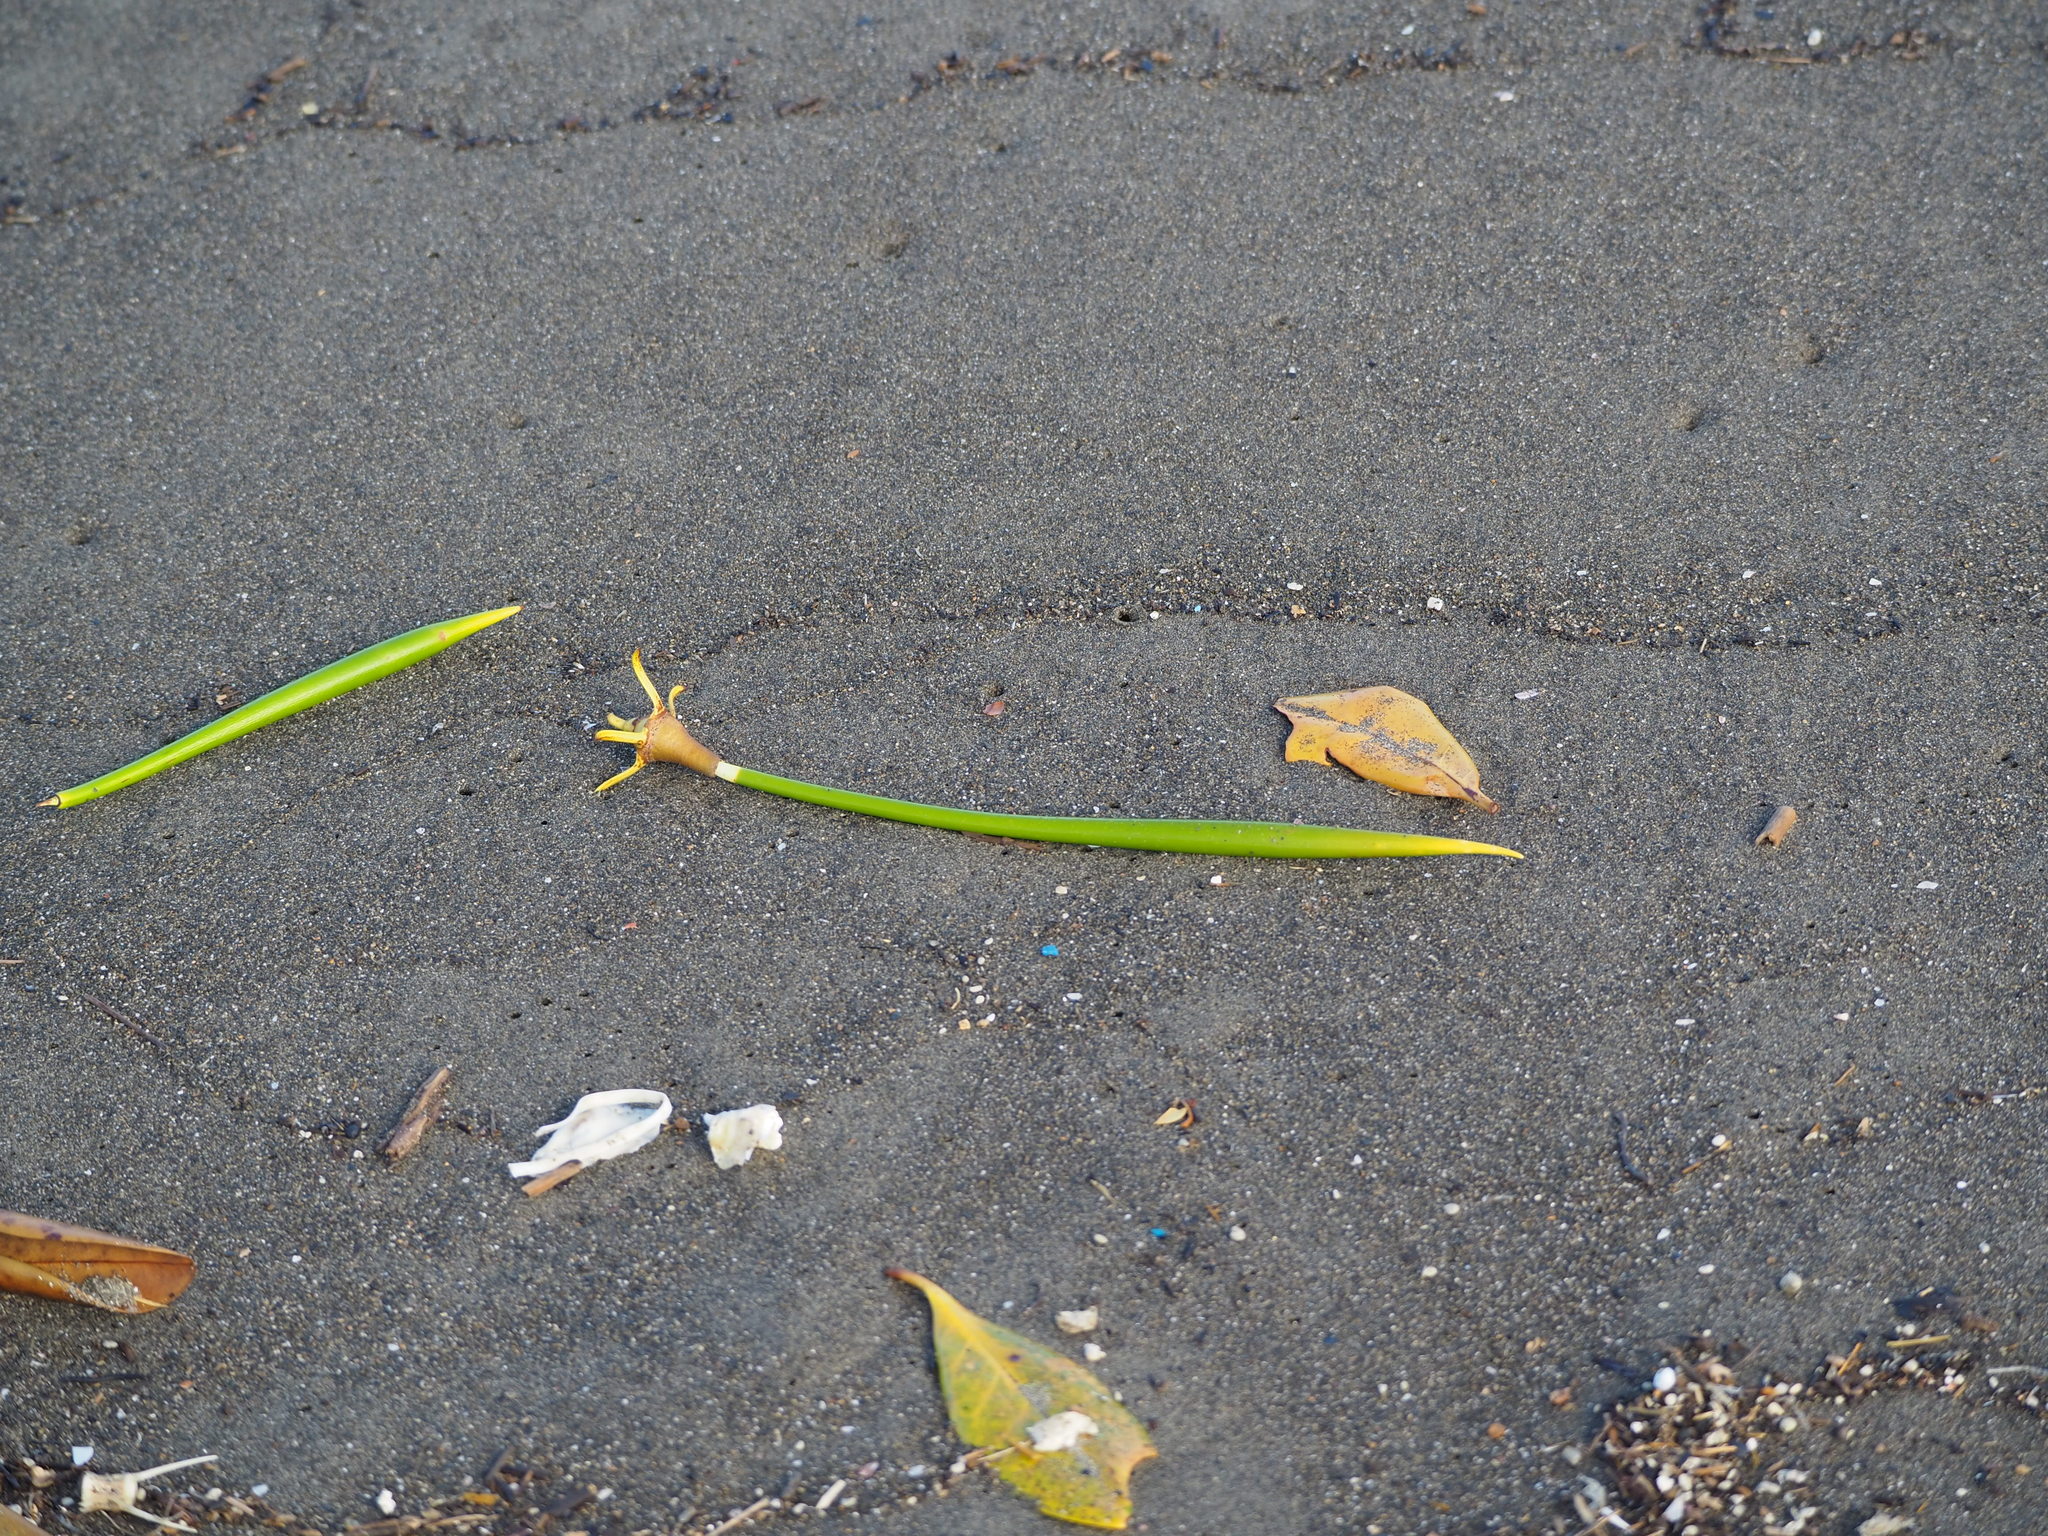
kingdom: Plantae
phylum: Tracheophyta
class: Magnoliopsida
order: Malpighiales
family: Rhizophoraceae
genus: Kandelia
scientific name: Kandelia obovata
